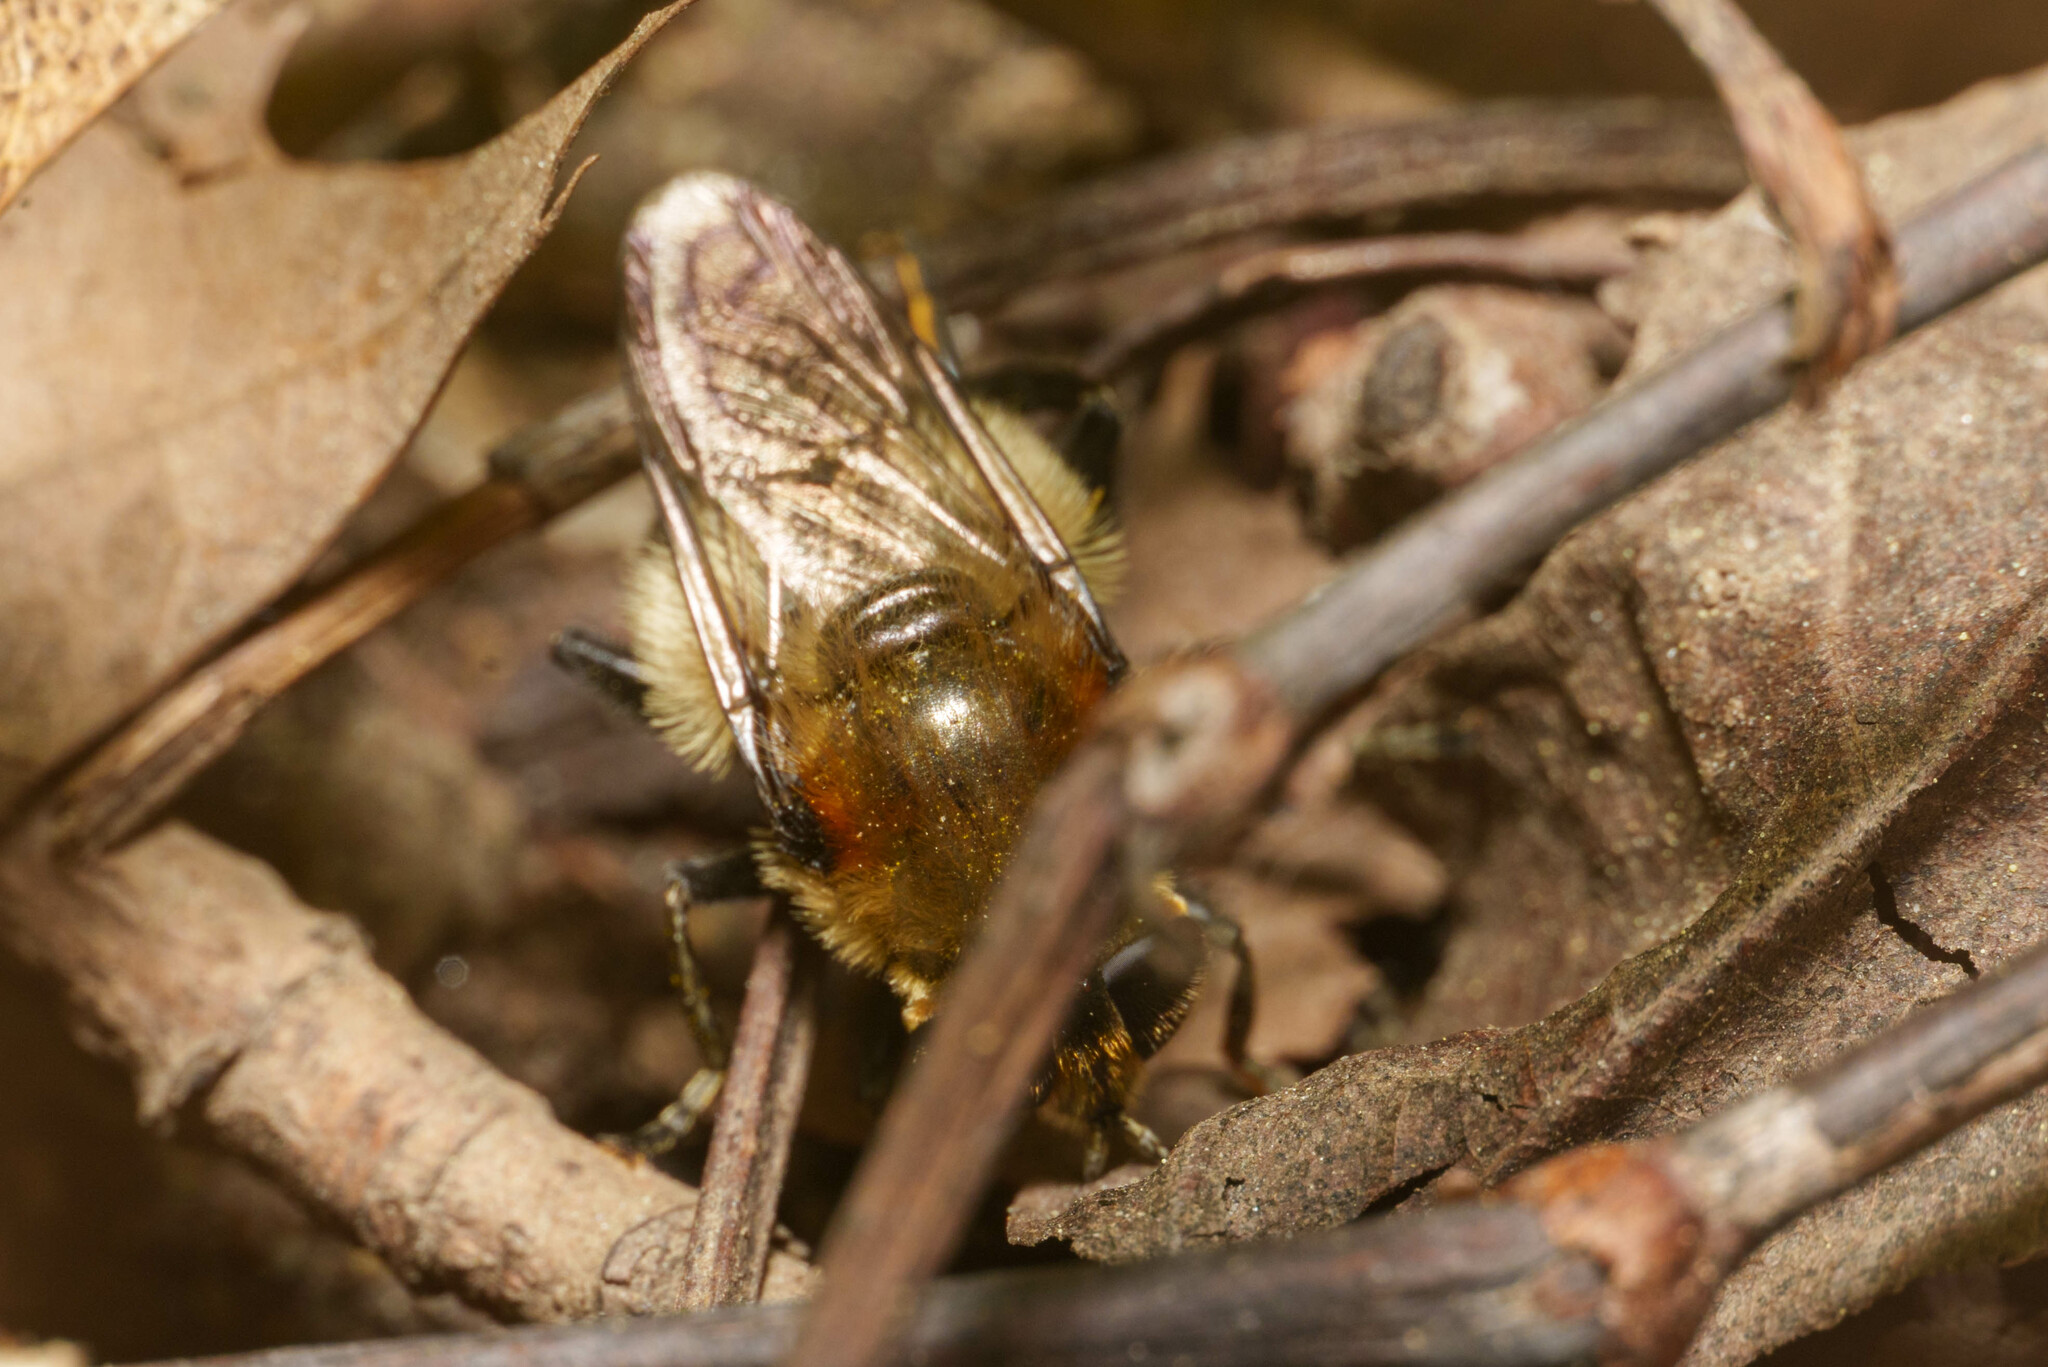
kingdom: Animalia
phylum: Arthropoda
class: Insecta
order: Diptera
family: Syrphidae
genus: Merodon
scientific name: Merodon equestris
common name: Greater bulb-fly
